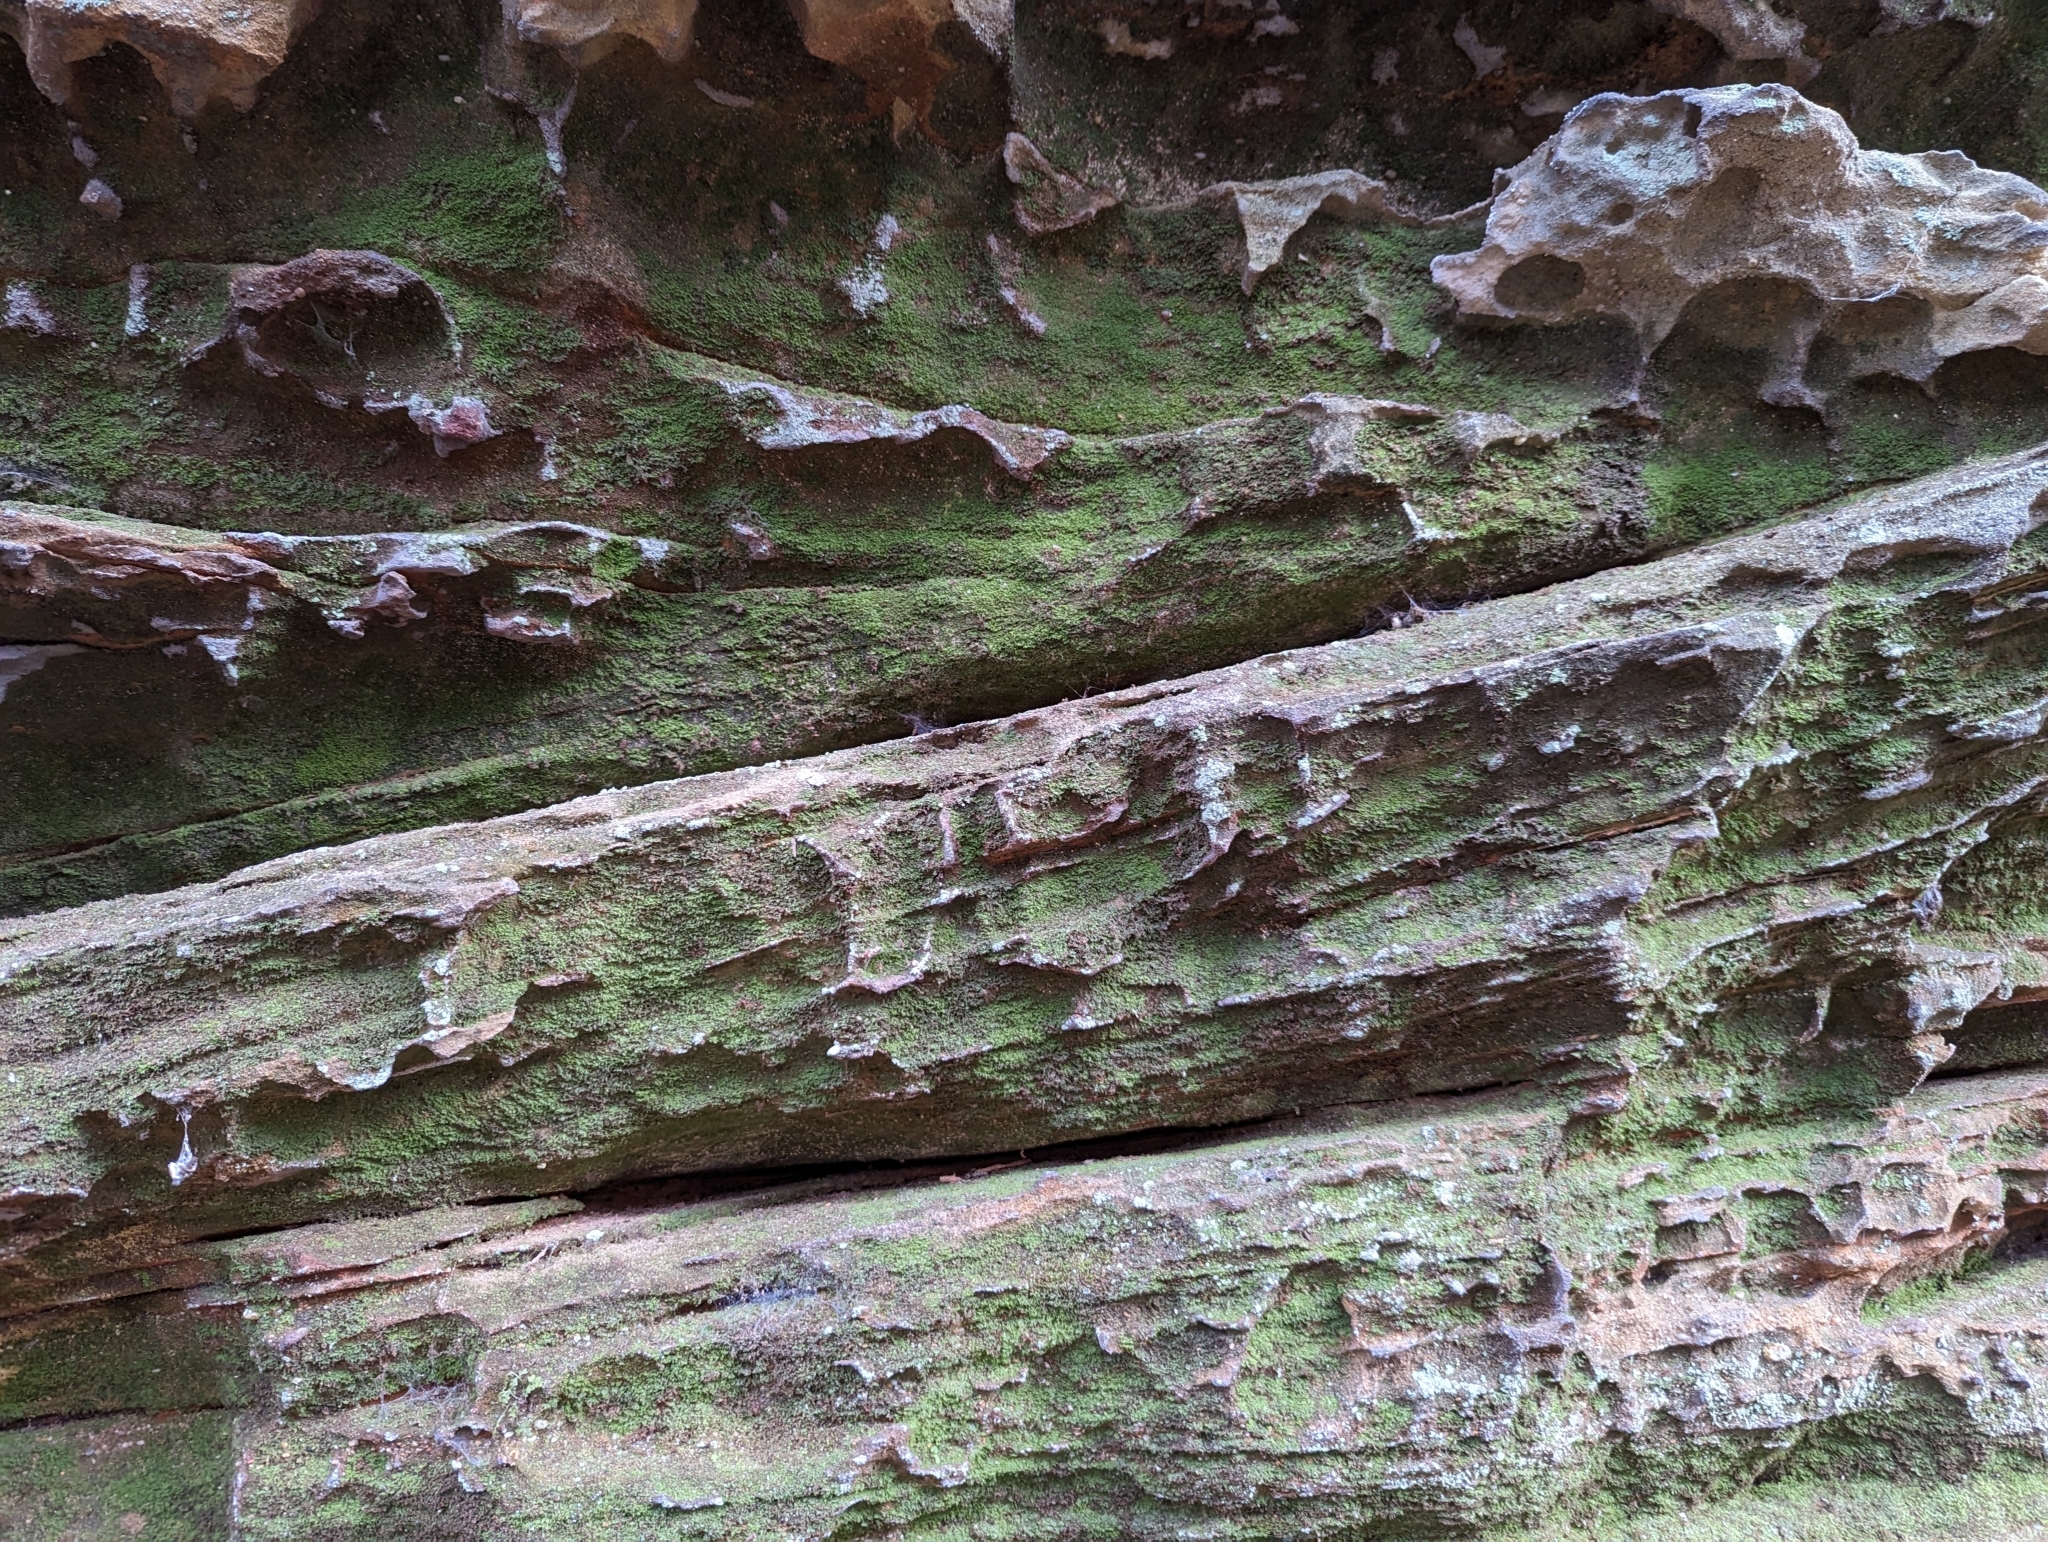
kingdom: Plantae
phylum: Tracheophyta
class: Polypodiopsida
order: Polypodiales
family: Pteridaceae
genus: Vittaria
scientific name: Vittaria appalachiana
